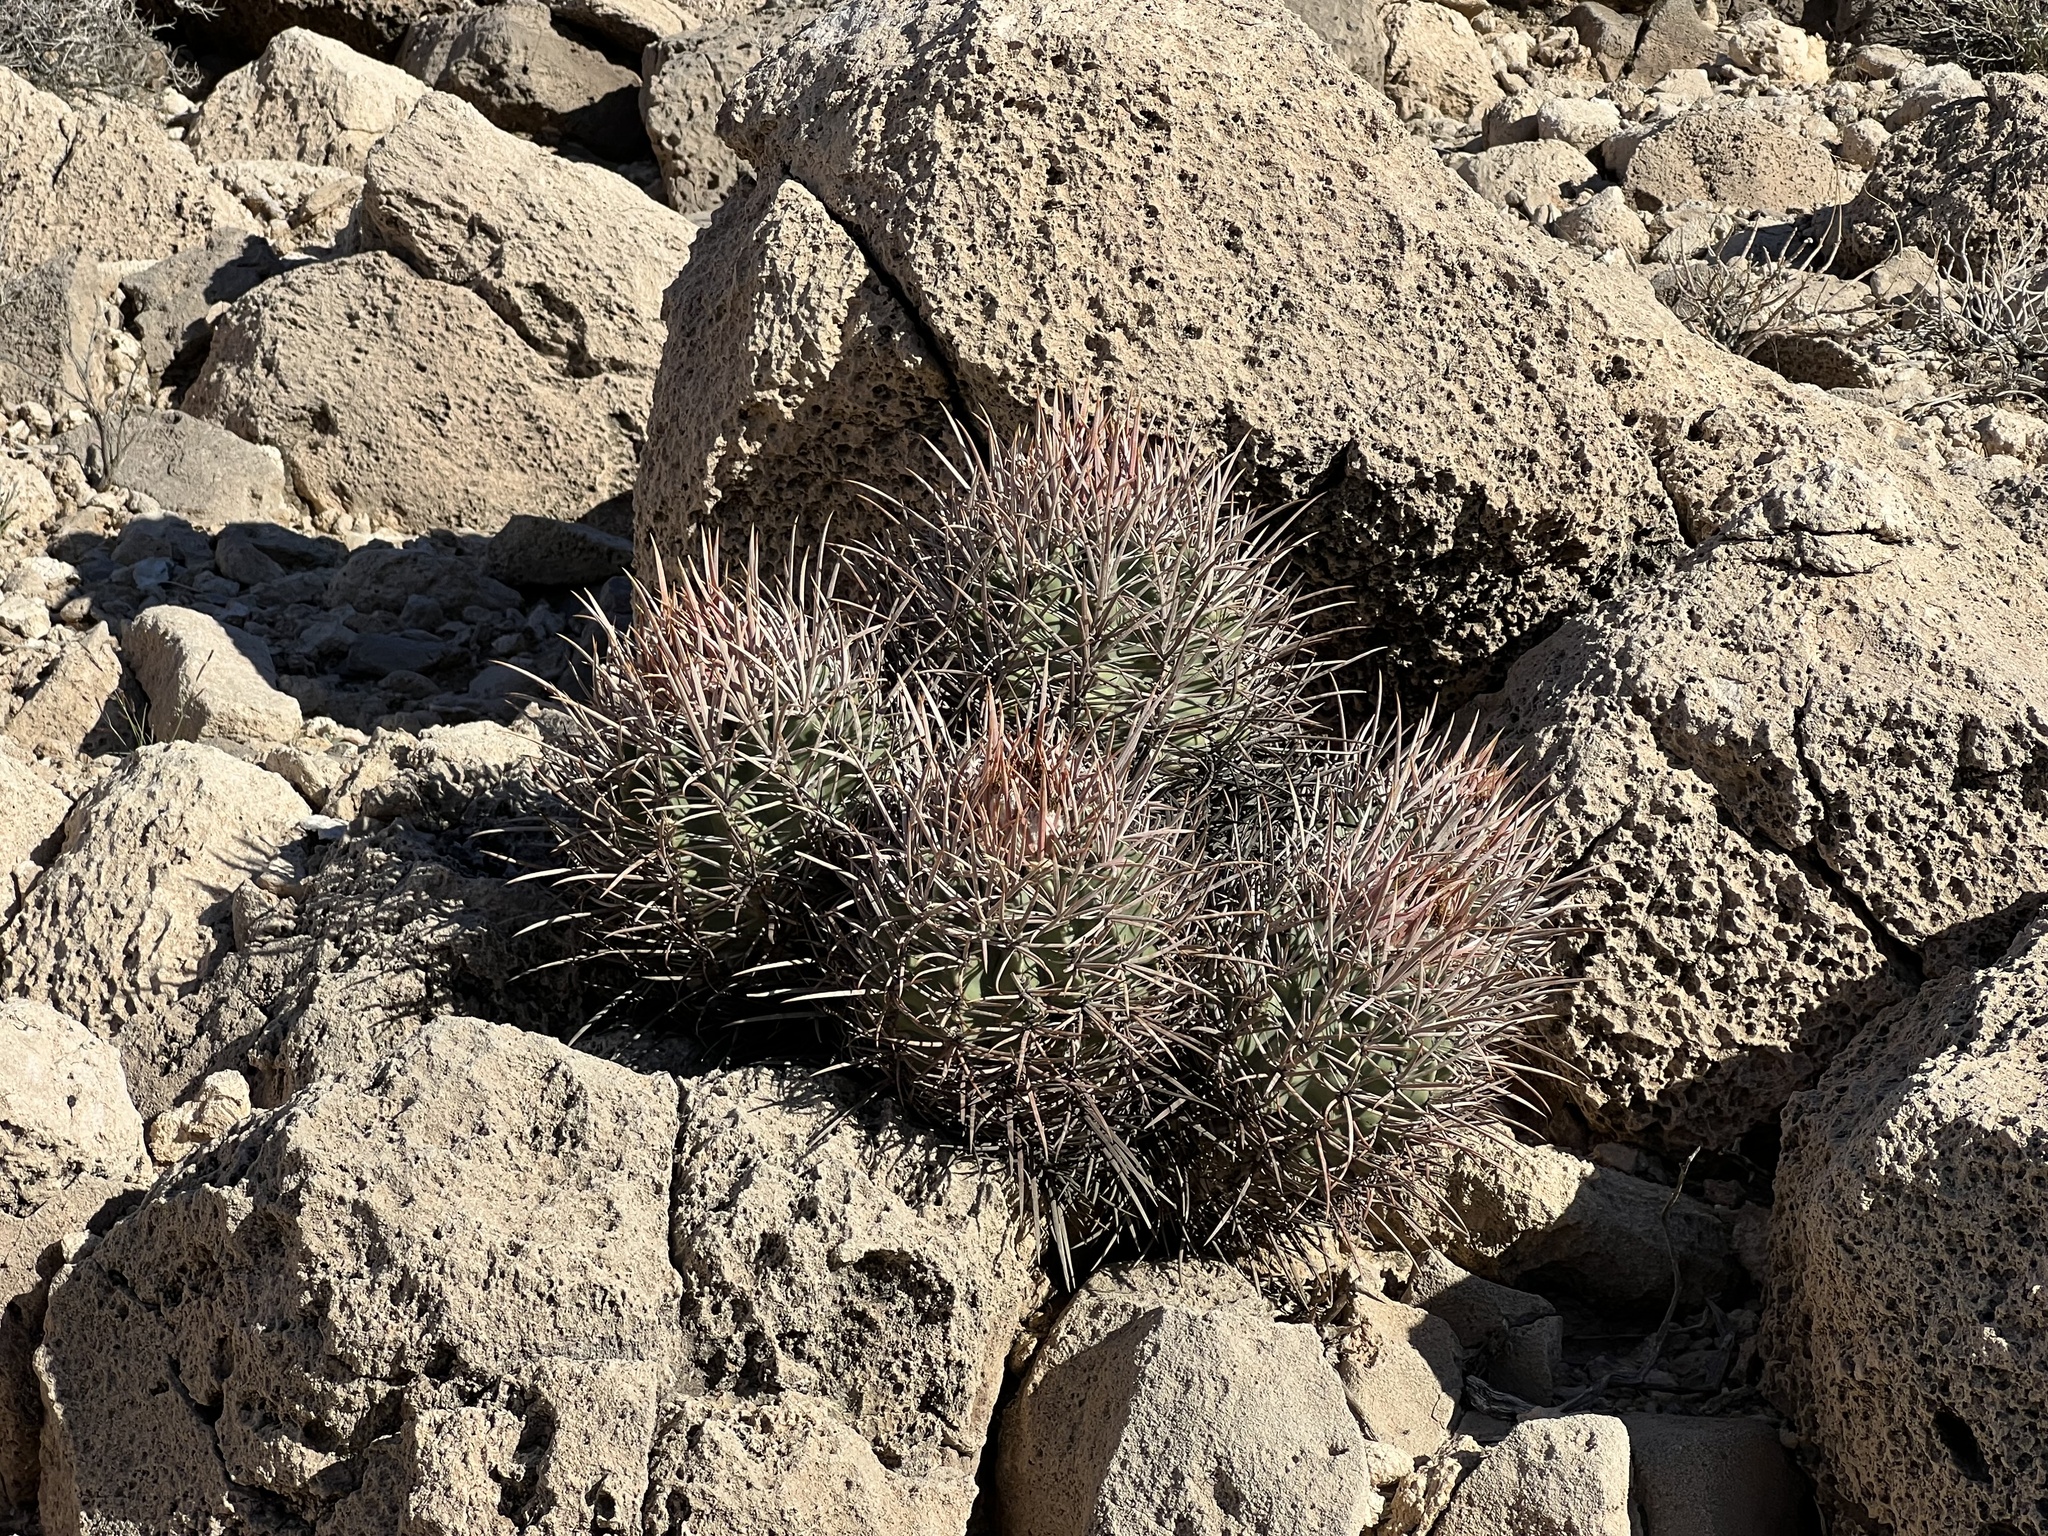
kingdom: Plantae
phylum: Tracheophyta
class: Magnoliopsida
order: Caryophyllales
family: Cactaceae
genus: Echinocactus
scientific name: Echinocactus polycephalus
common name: Cottontop cactus
